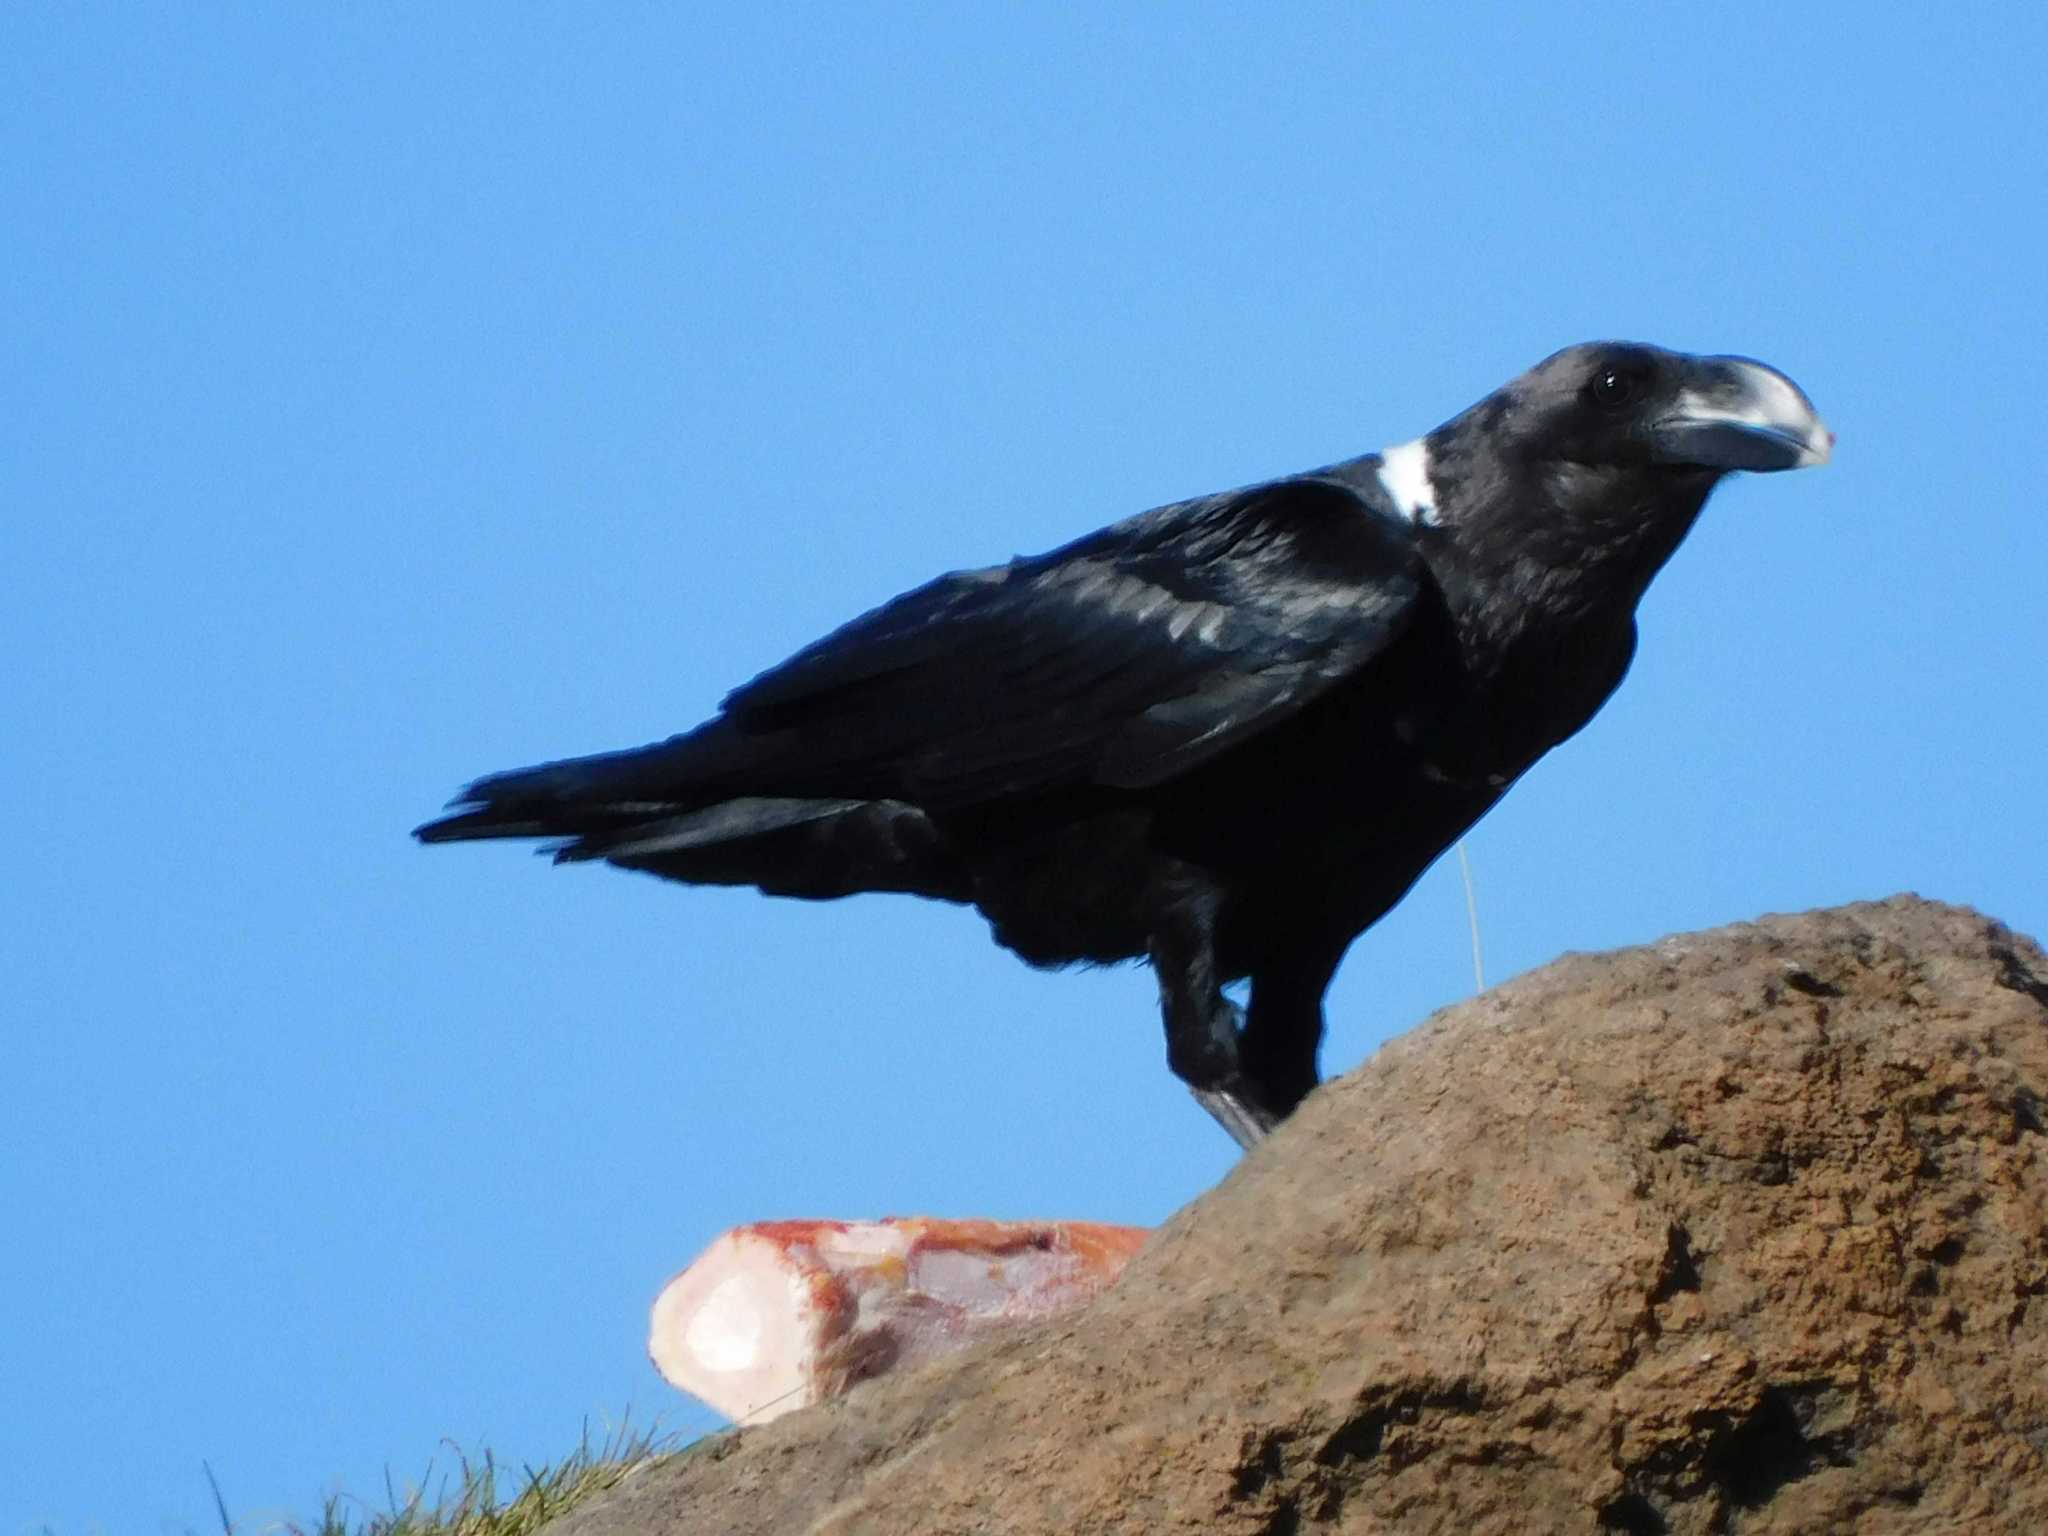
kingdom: Animalia
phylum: Chordata
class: Aves
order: Passeriformes
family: Corvidae
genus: Corvus
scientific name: Corvus albicollis
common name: White-necked raven
